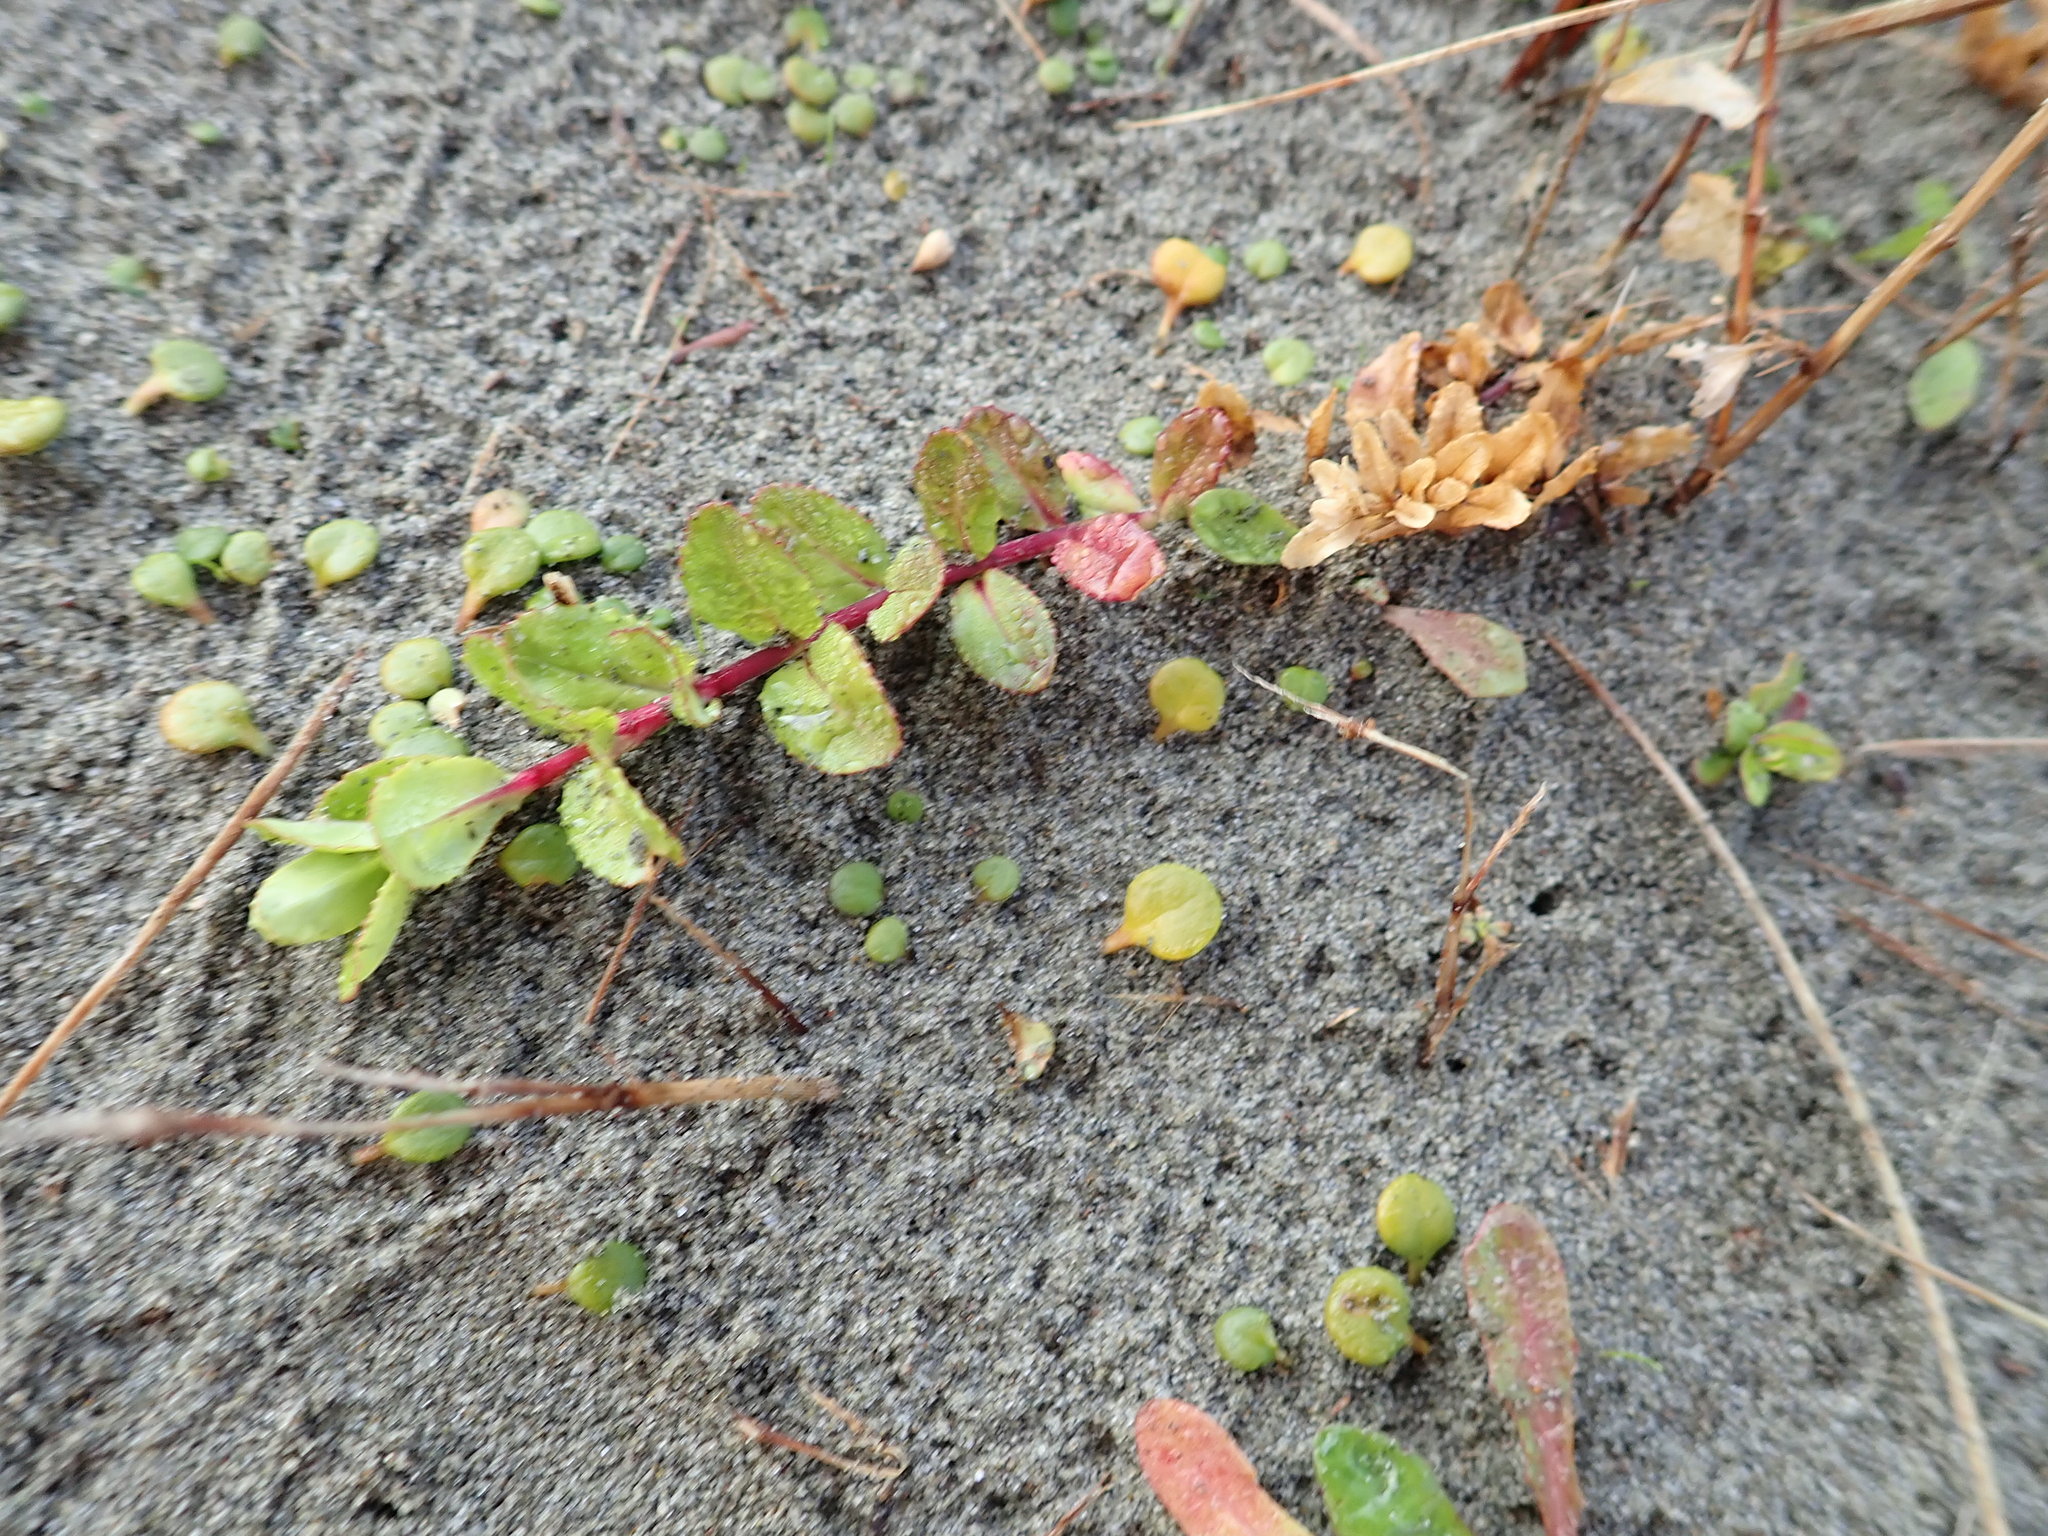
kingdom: Plantae
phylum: Tracheophyta
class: Magnoliopsida
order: Myrtales
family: Onagraceae
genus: Epilobium
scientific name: Epilobium billardiereanum
